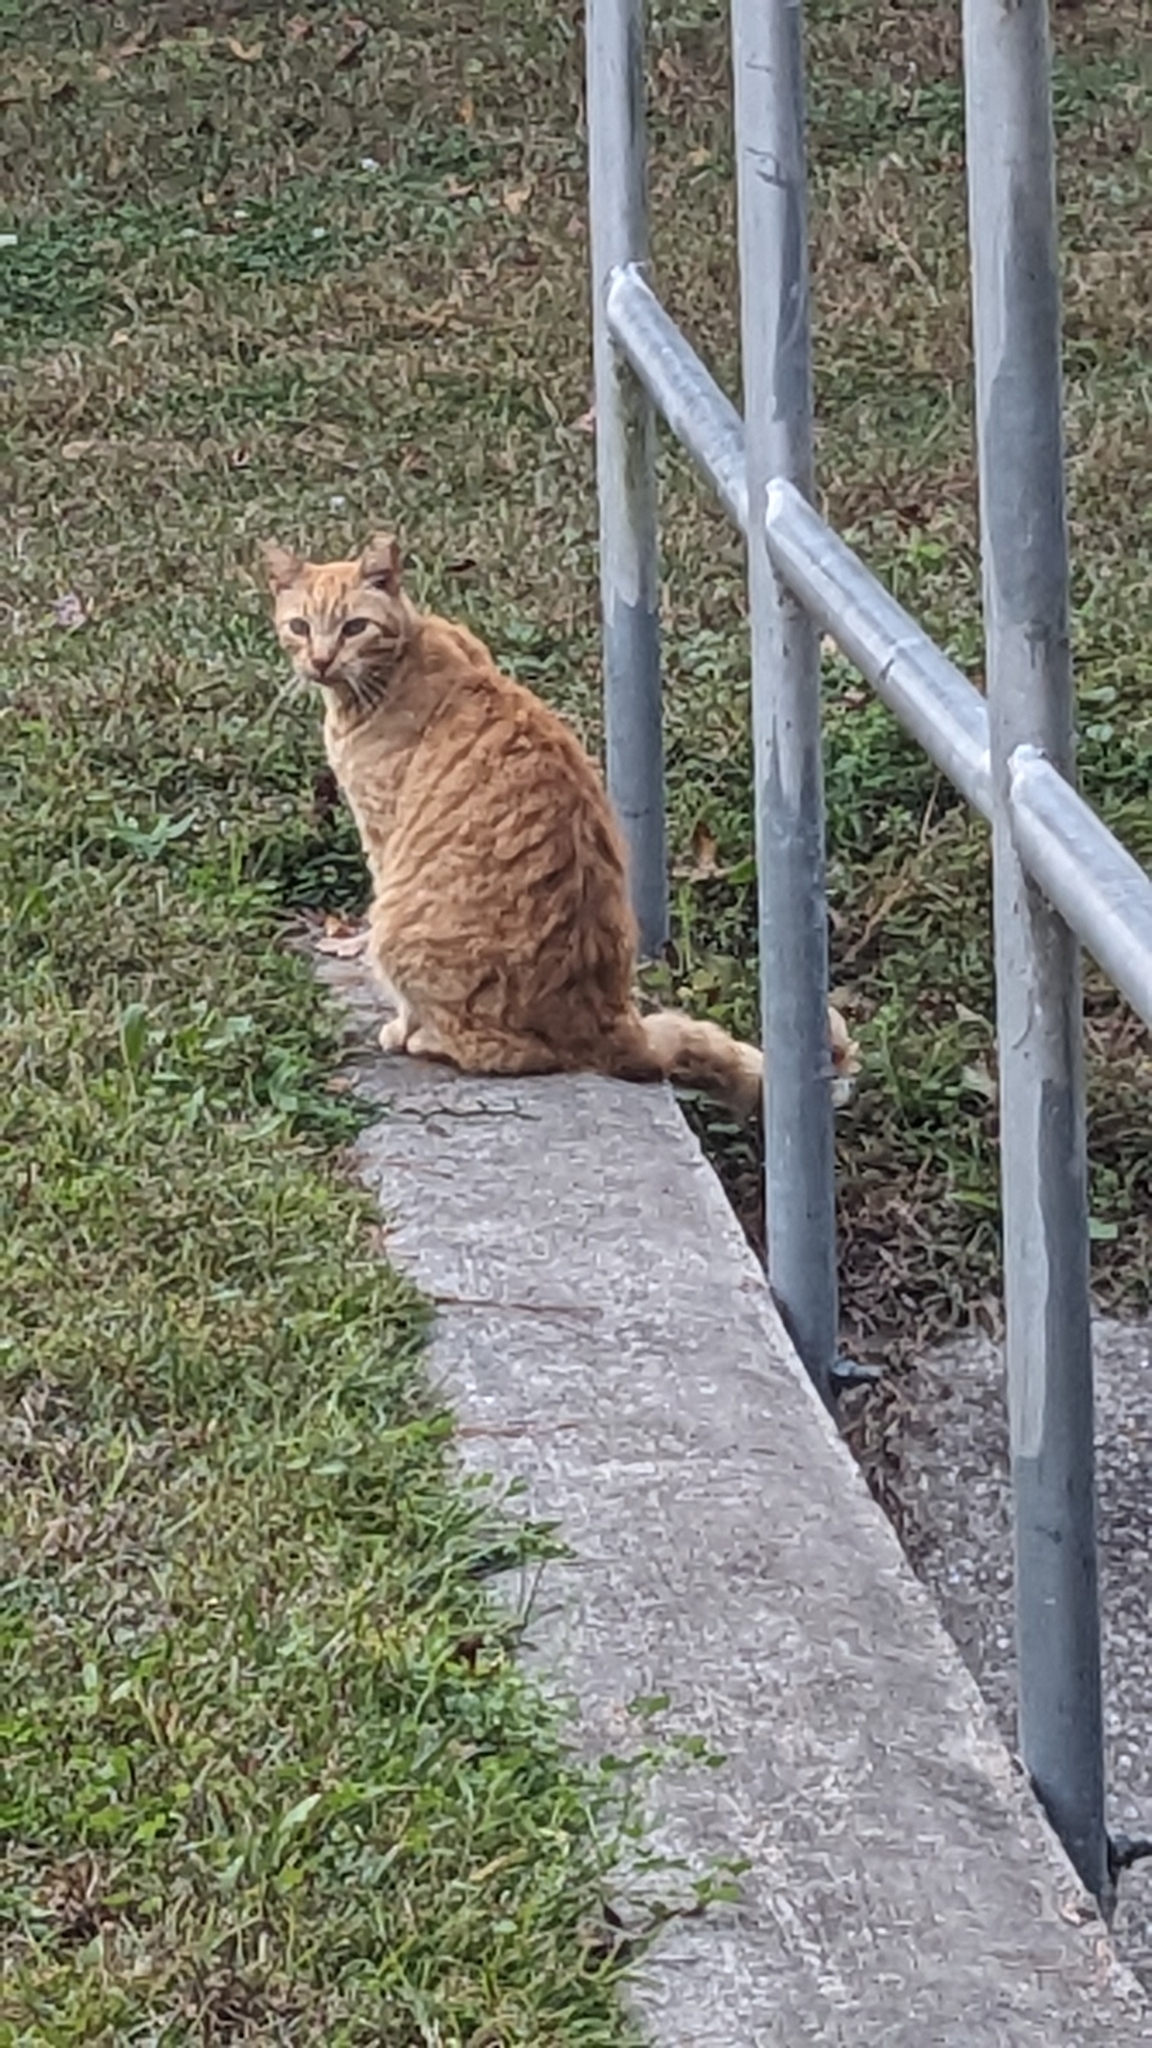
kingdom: Animalia
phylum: Chordata
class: Mammalia
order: Carnivora
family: Felidae
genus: Felis
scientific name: Felis catus
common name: Domestic cat
